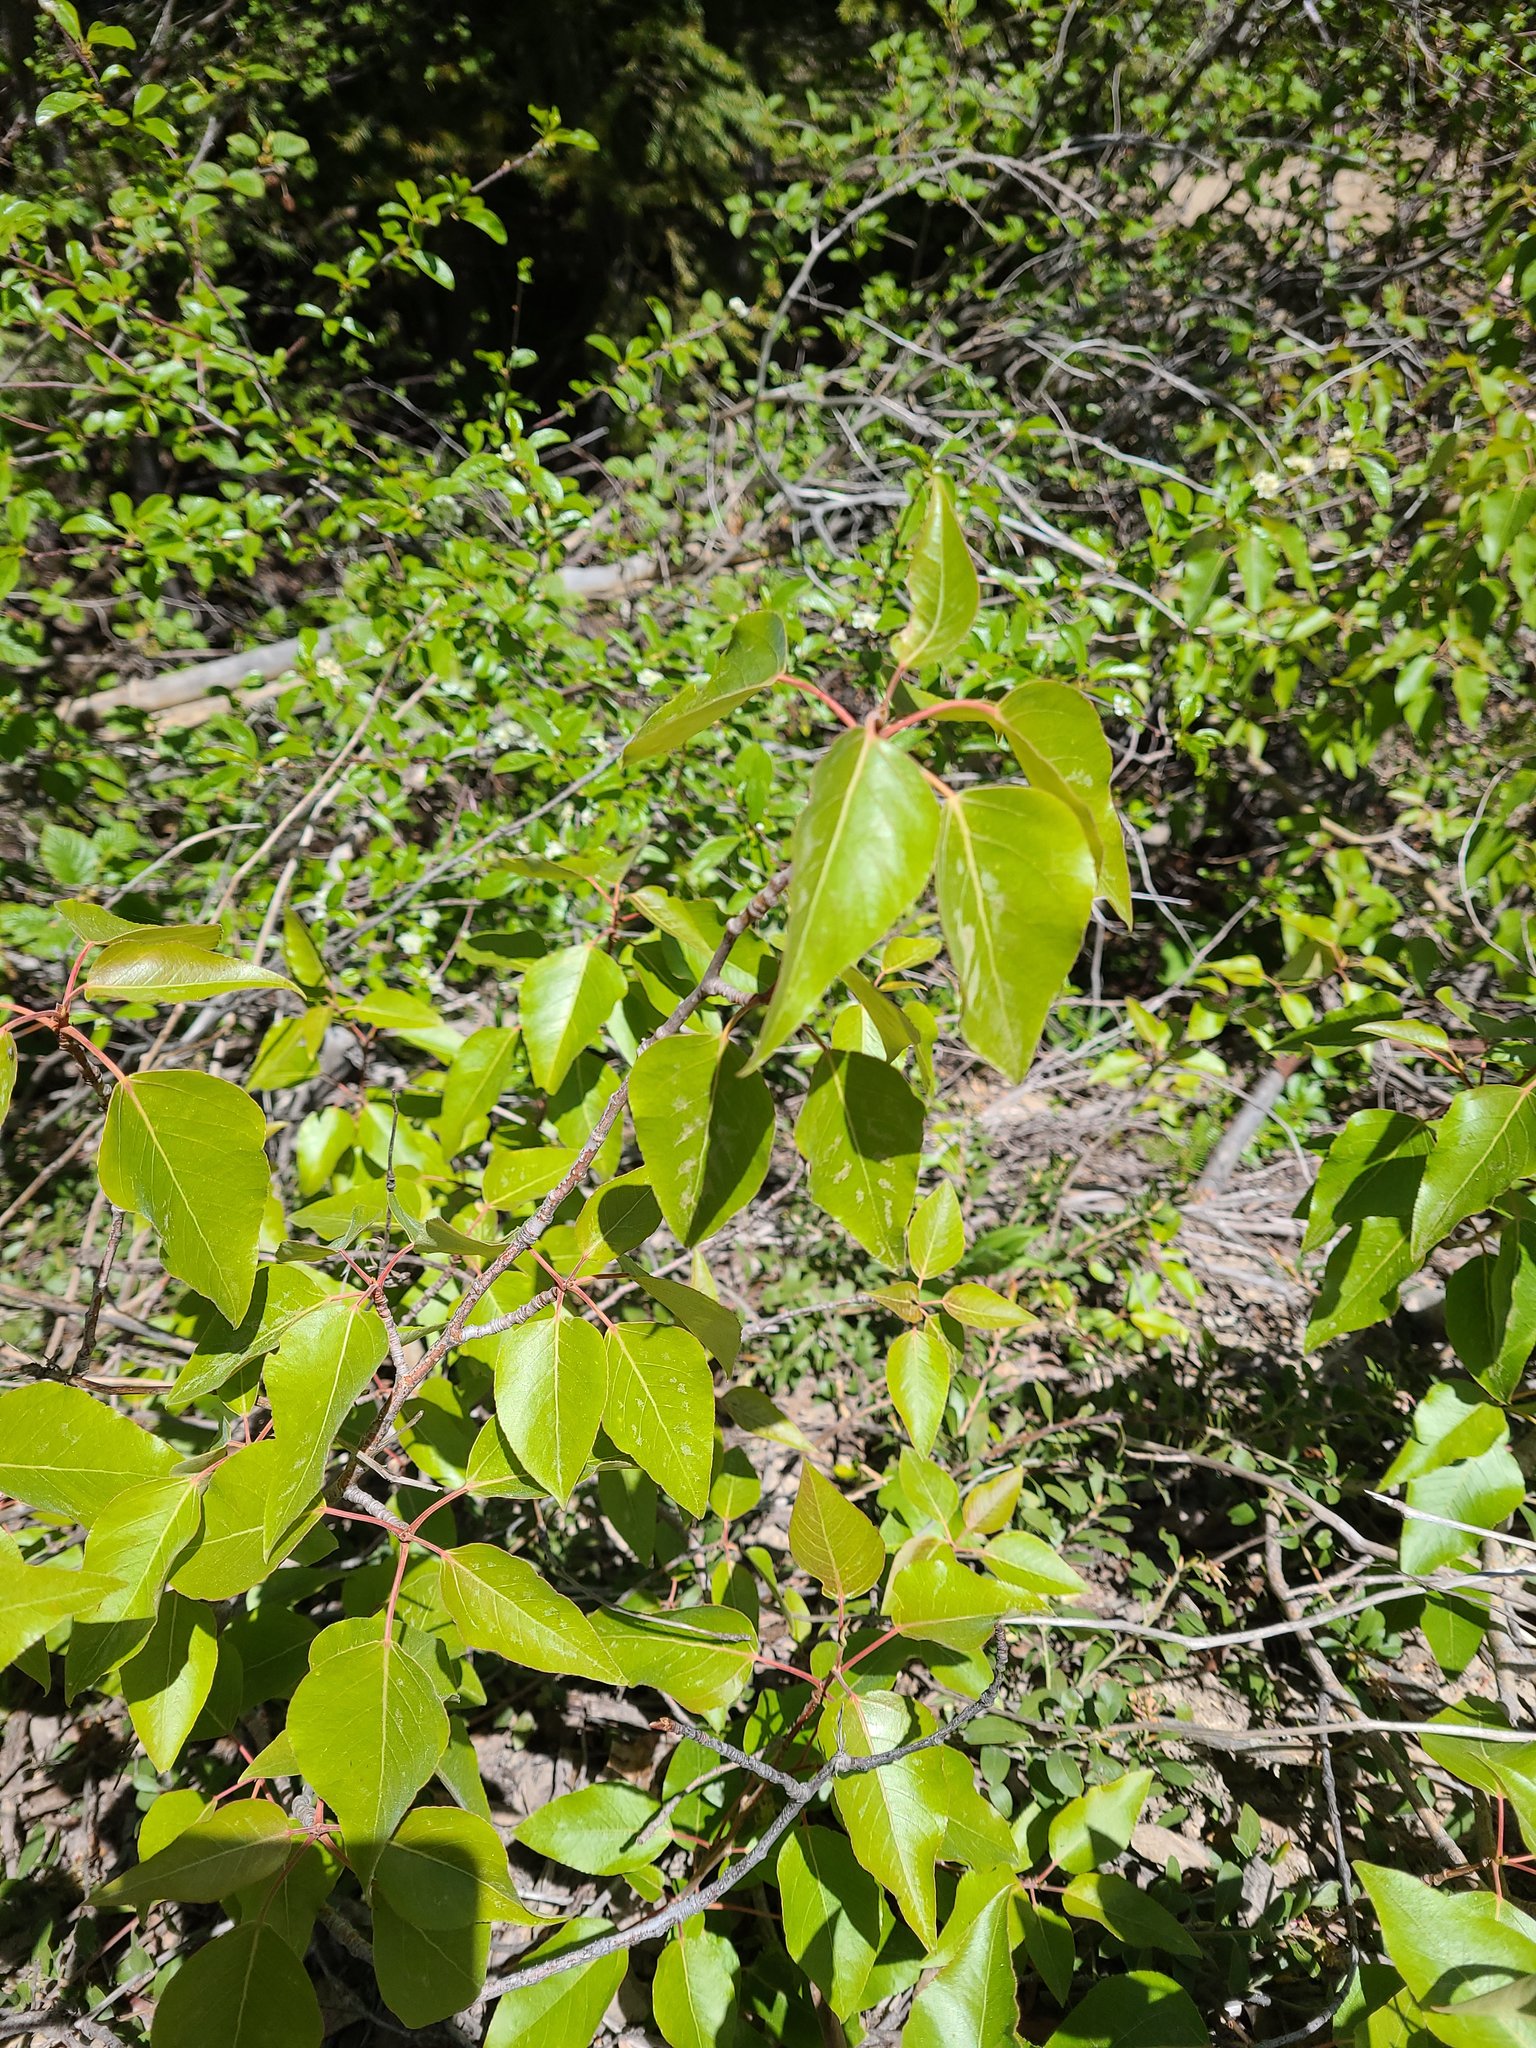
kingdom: Plantae
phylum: Tracheophyta
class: Magnoliopsida
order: Malpighiales
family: Salicaceae
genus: Populus
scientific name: Populus trichocarpa
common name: Black cottonwood
